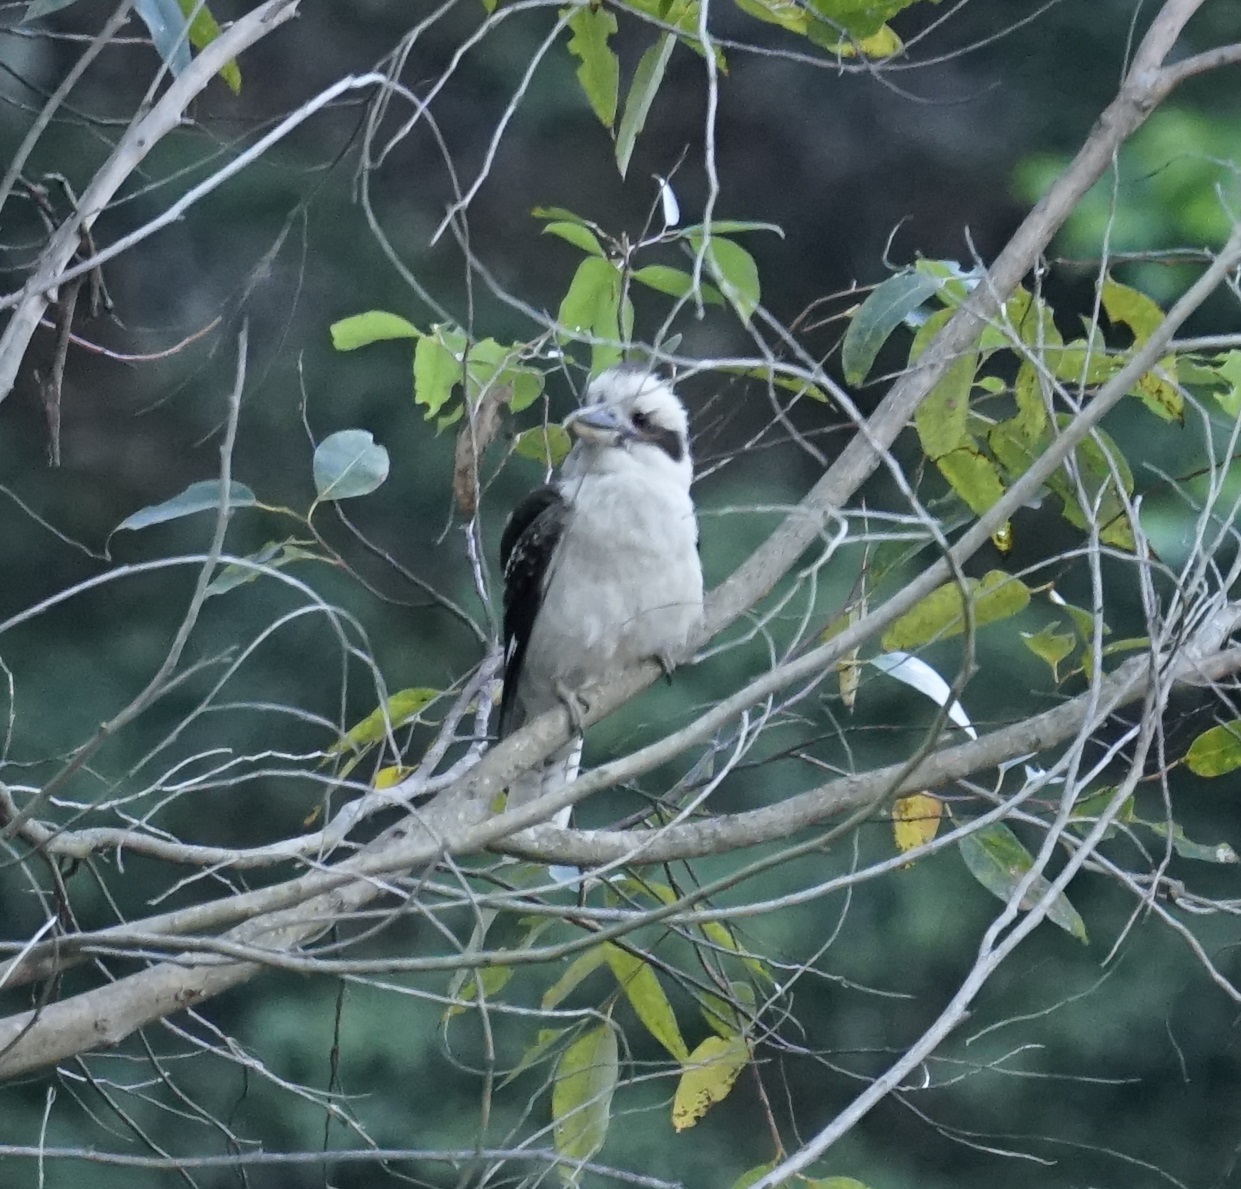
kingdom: Animalia
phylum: Chordata
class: Aves
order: Coraciiformes
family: Alcedinidae
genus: Dacelo
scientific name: Dacelo novaeguineae
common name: Laughing kookaburra
